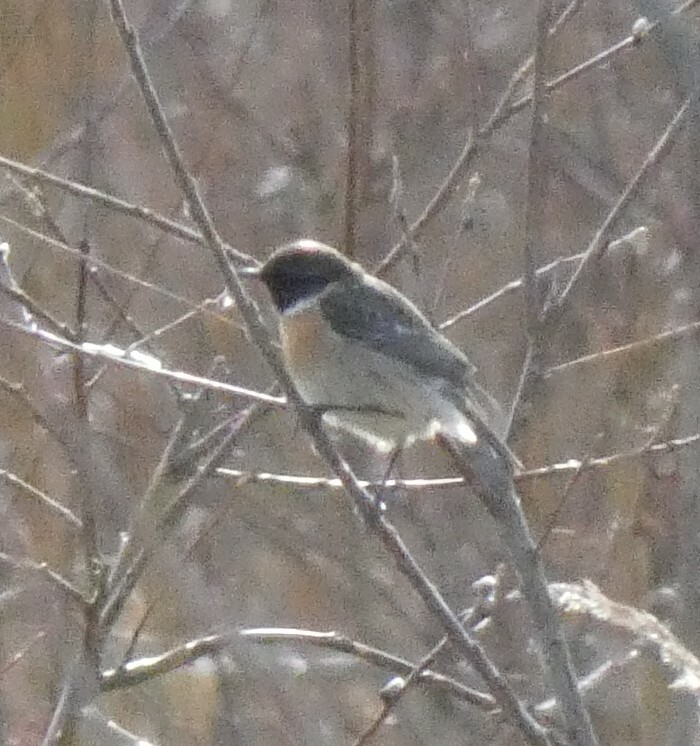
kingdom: Animalia
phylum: Chordata
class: Aves
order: Passeriformes
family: Muscicapidae
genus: Saxicola
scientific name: Saxicola rubicola
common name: European stonechat
